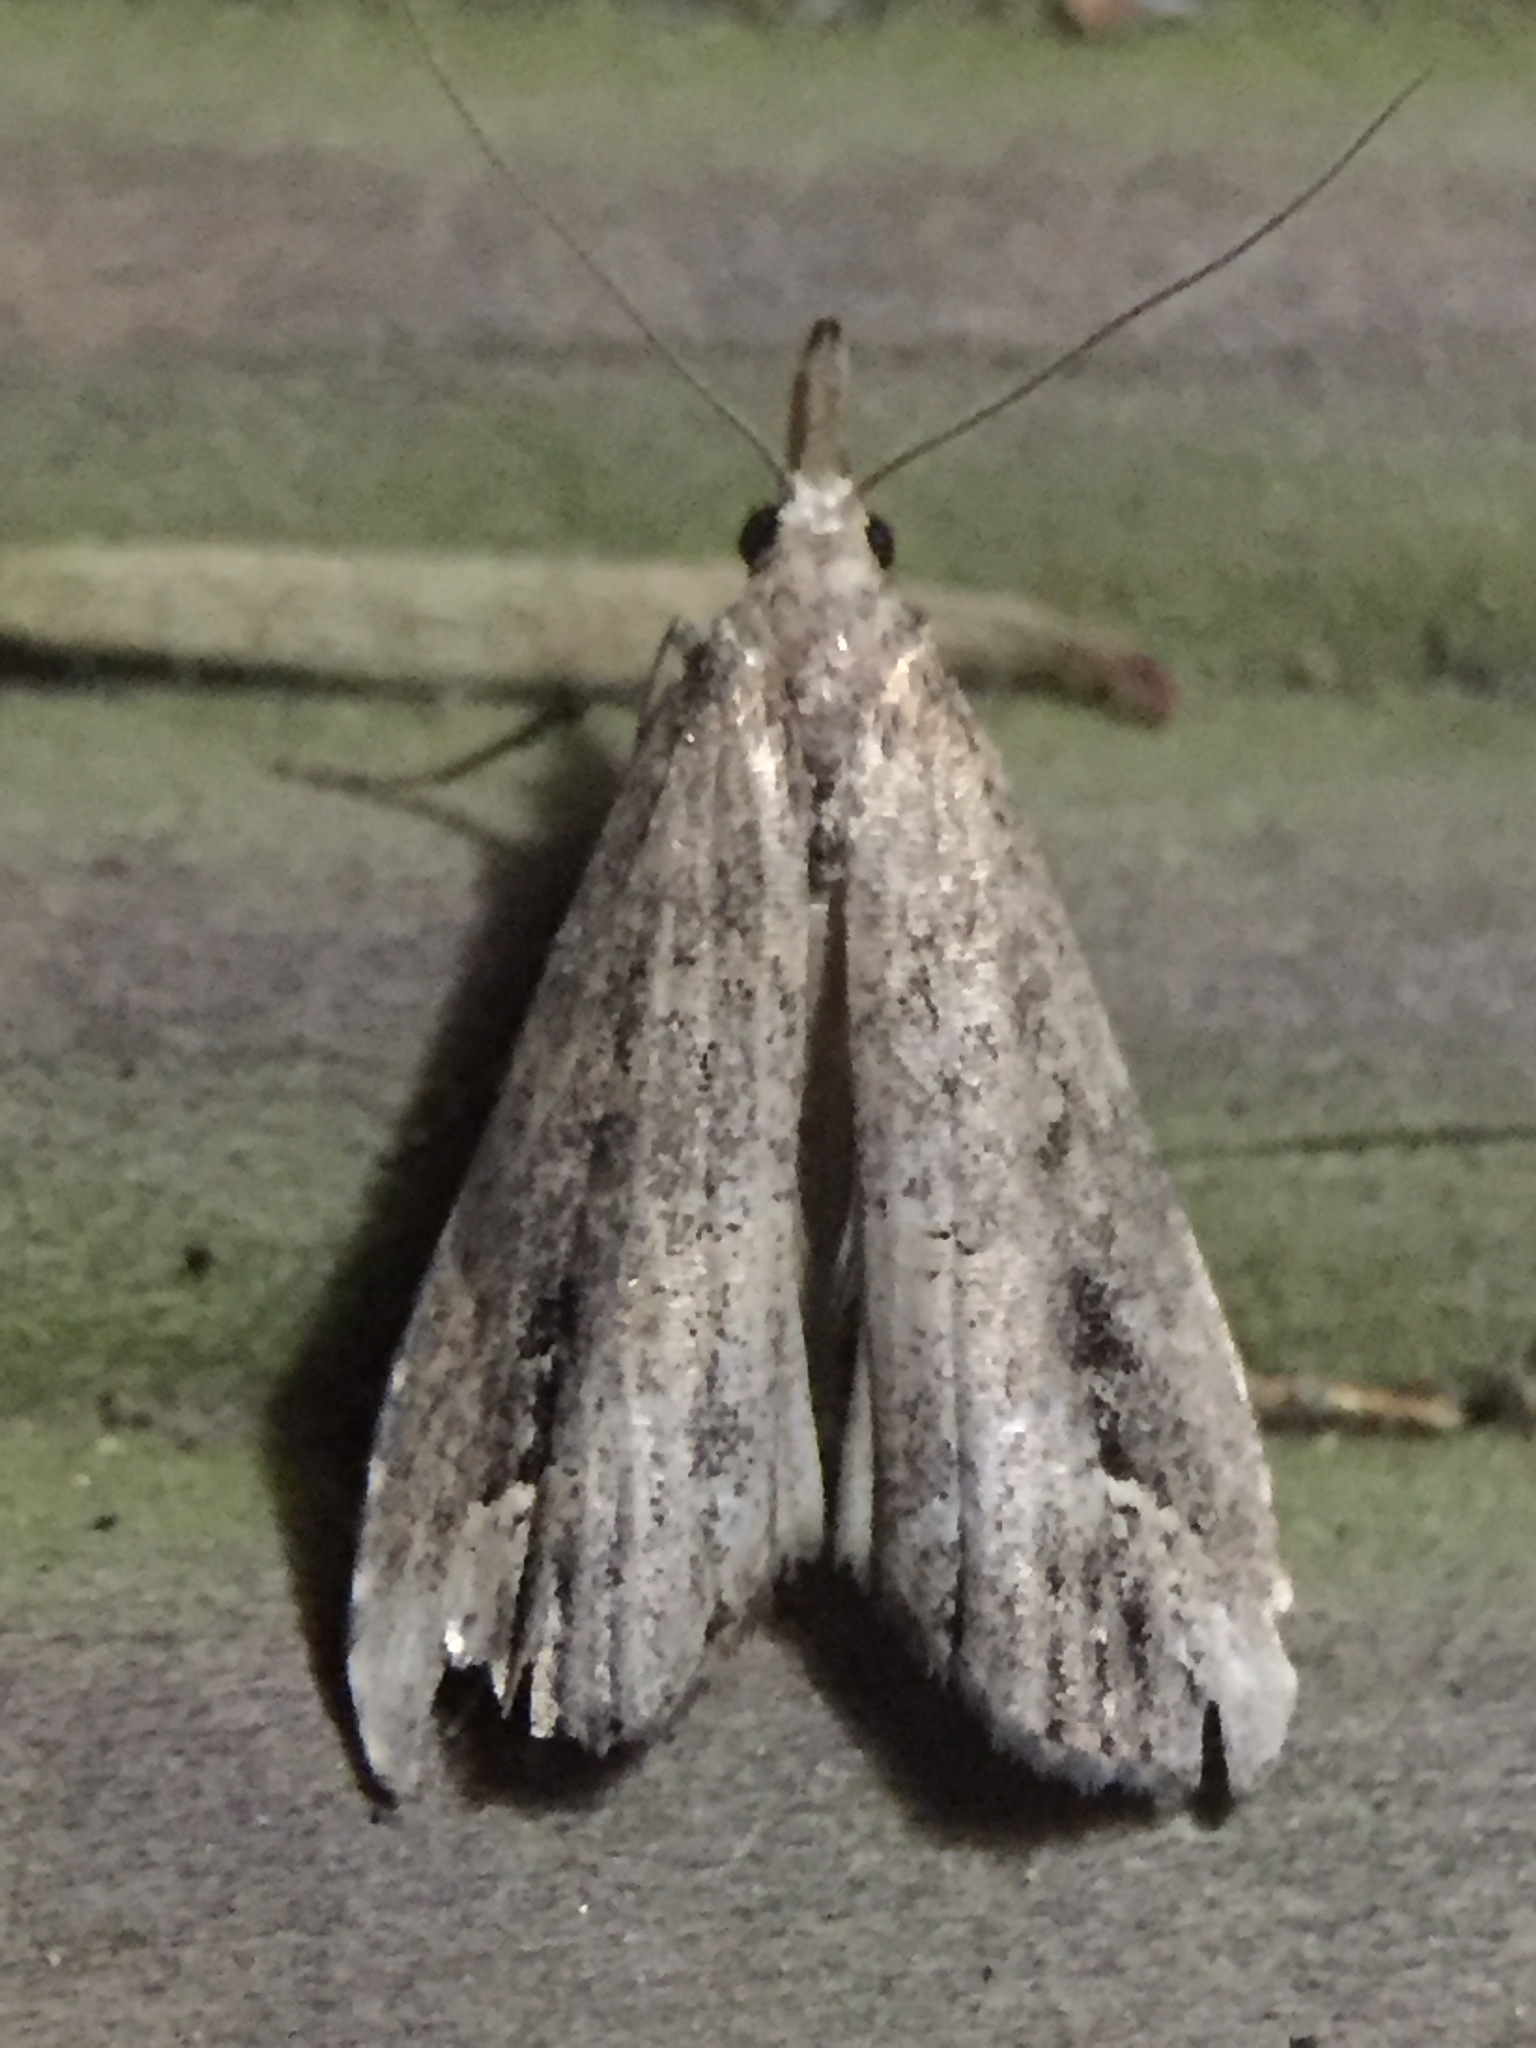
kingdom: Animalia
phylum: Arthropoda
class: Insecta
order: Lepidoptera
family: Erebidae
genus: Schrankia
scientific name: Schrankia costaestrigalis
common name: Pinion-streaked snout
